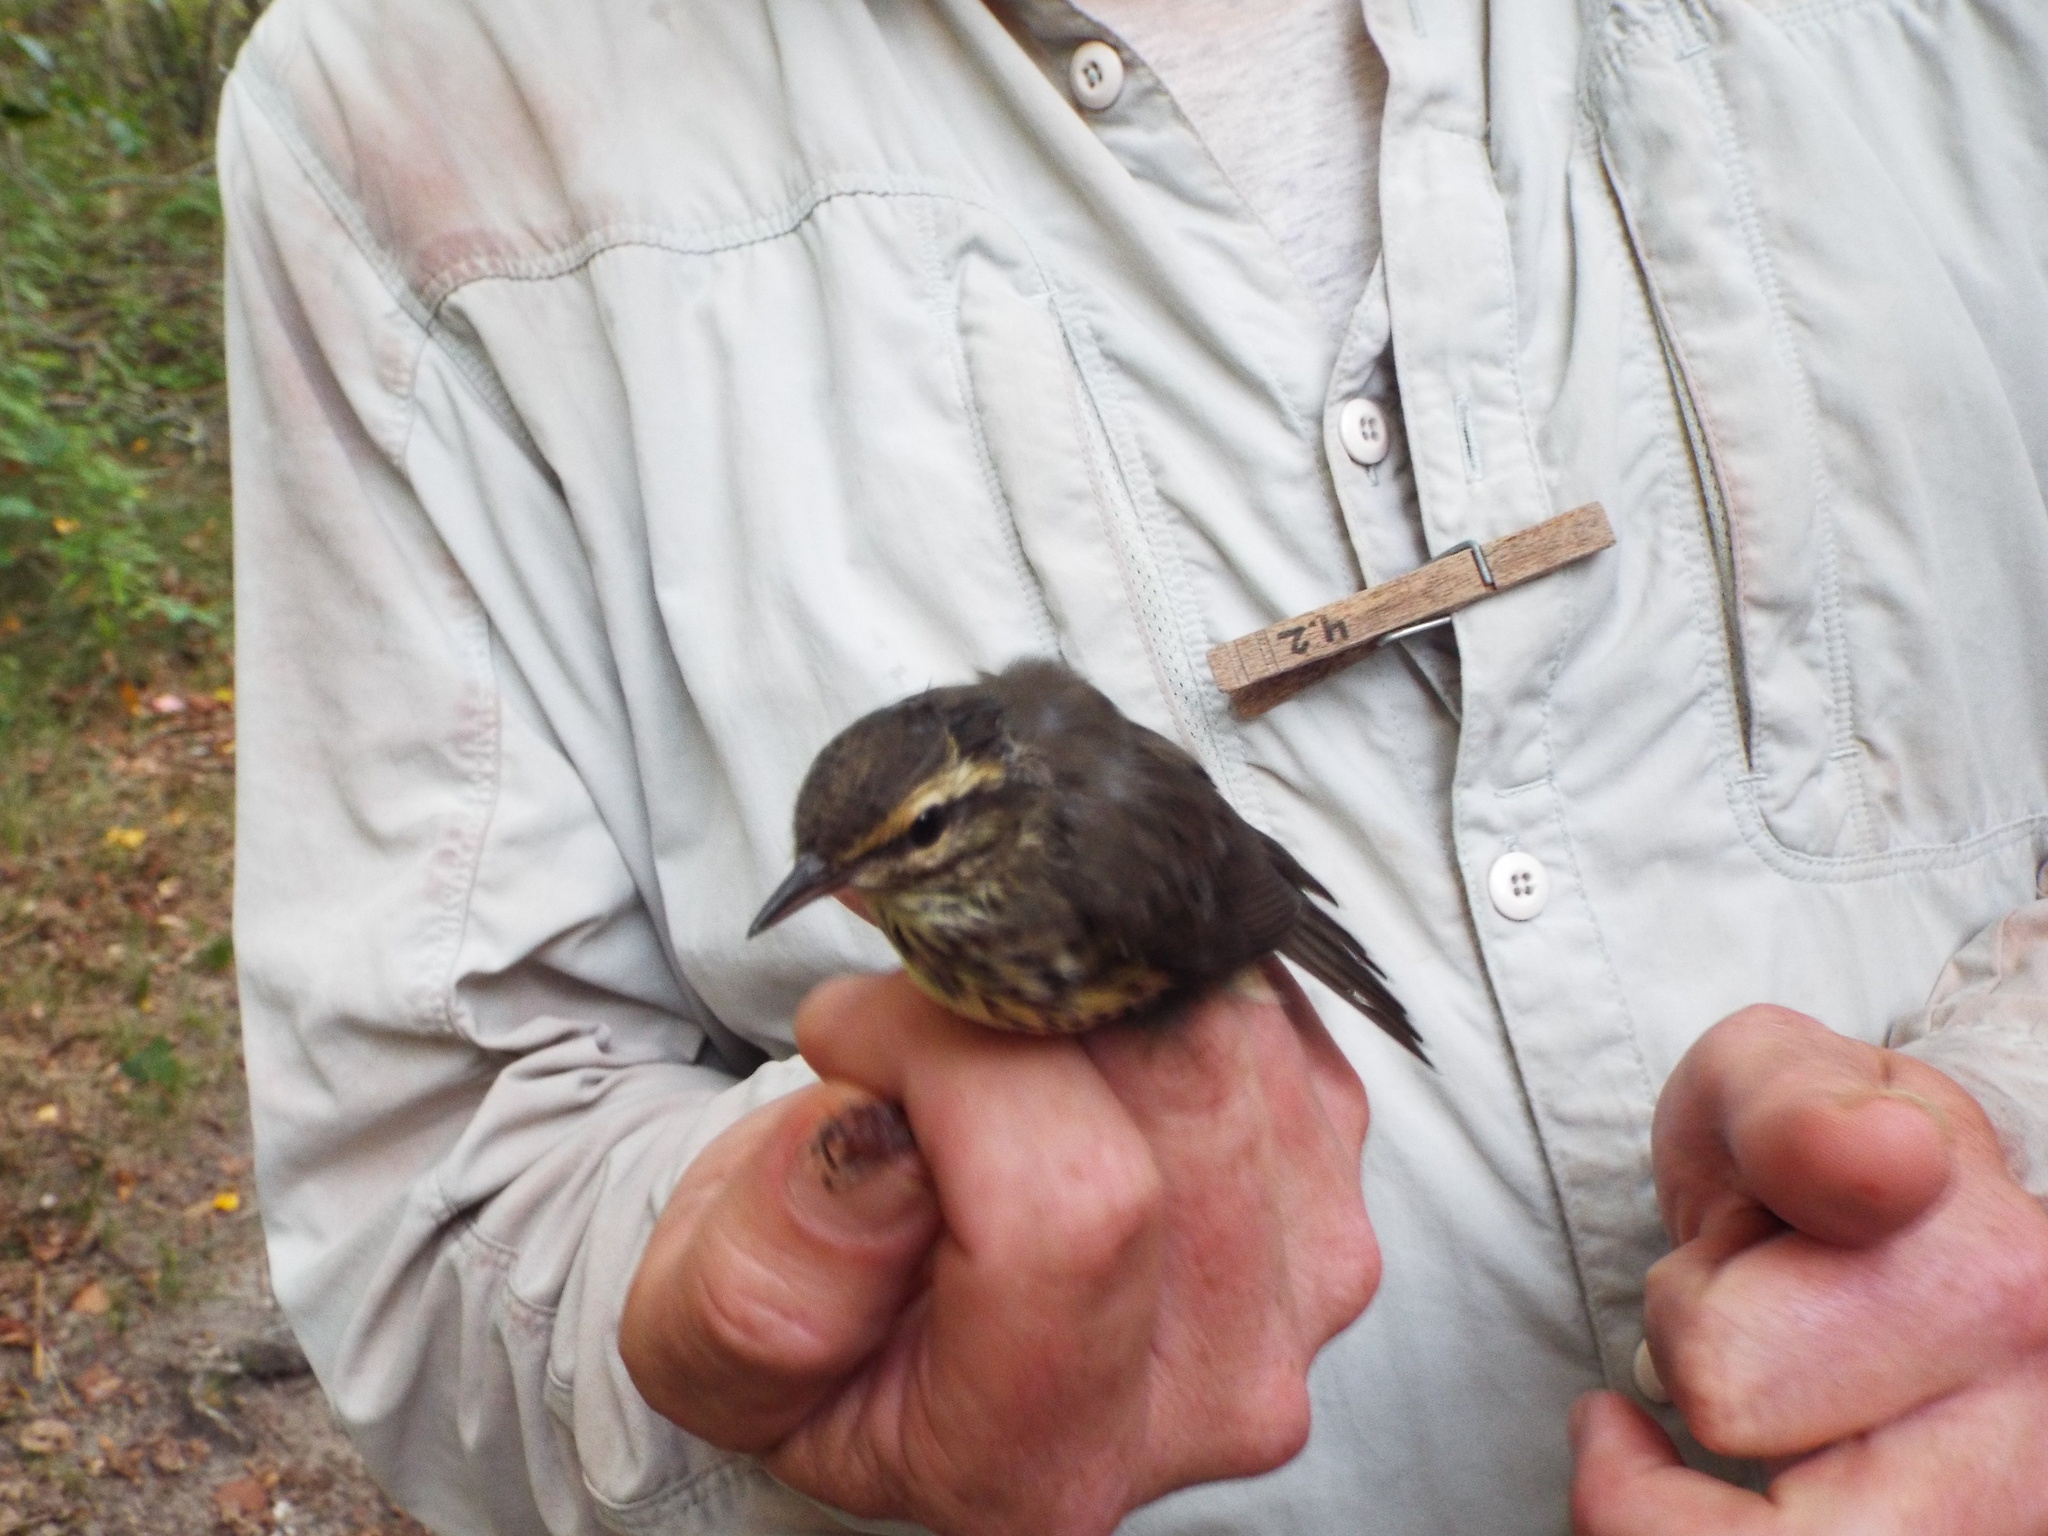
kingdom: Animalia
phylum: Chordata
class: Aves
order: Passeriformes
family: Parulidae
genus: Parkesia
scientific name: Parkesia noveboracensis
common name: Northern waterthrush
